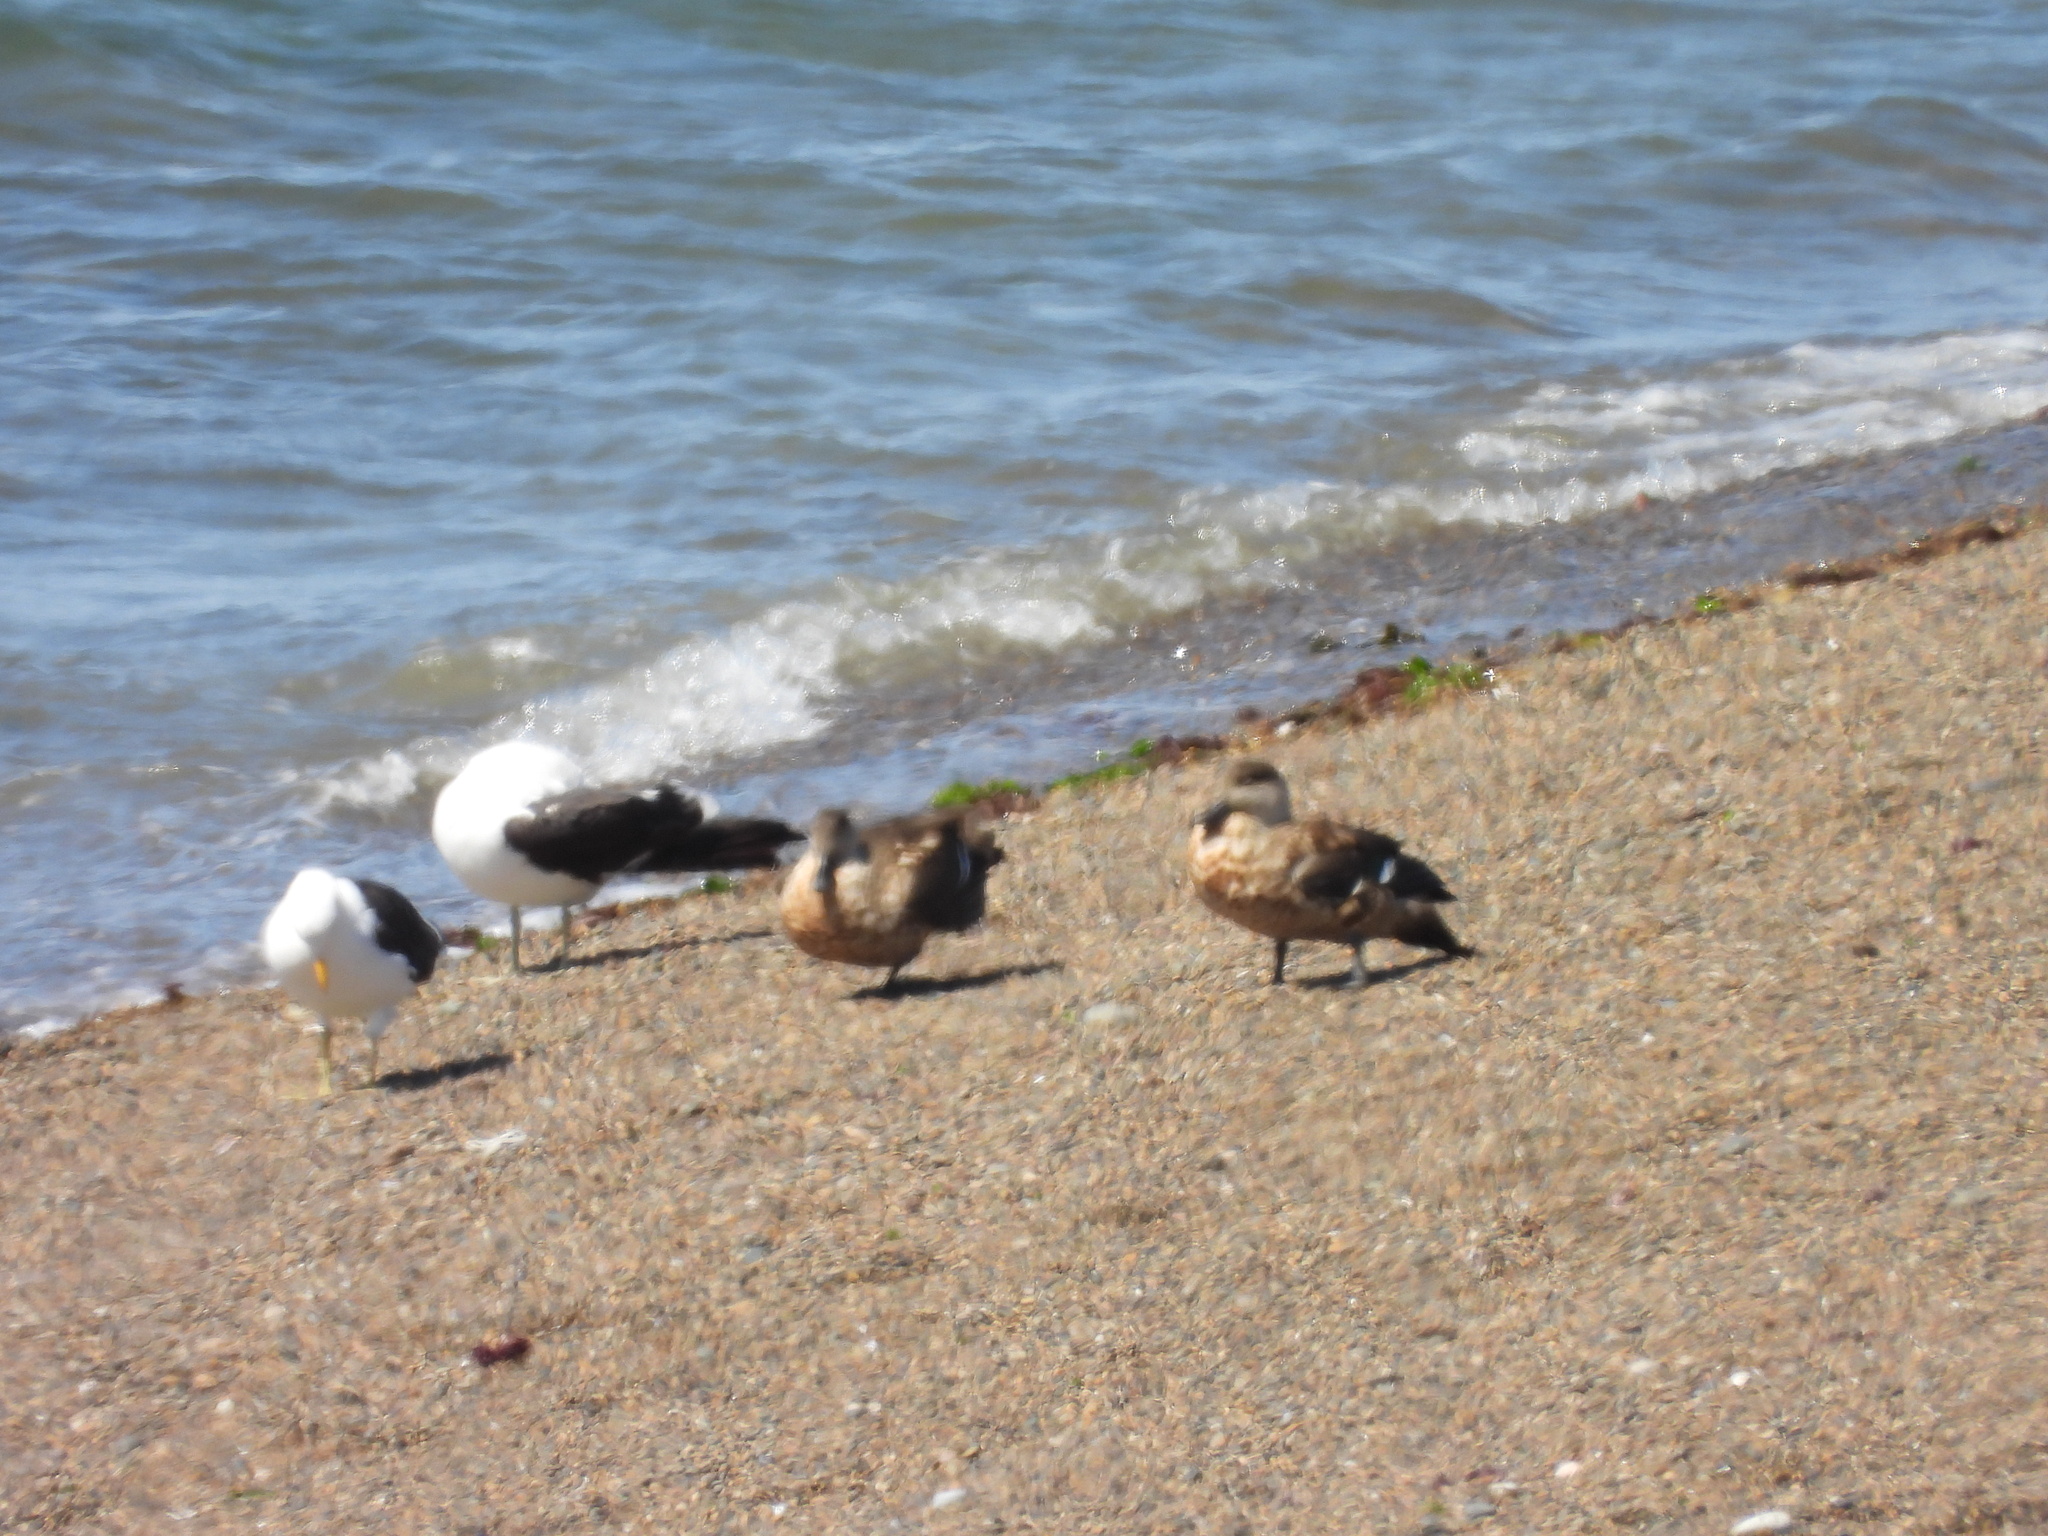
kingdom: Animalia
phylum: Chordata
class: Aves
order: Anseriformes
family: Anatidae
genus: Lophonetta
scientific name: Lophonetta specularioides
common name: Crested duck
